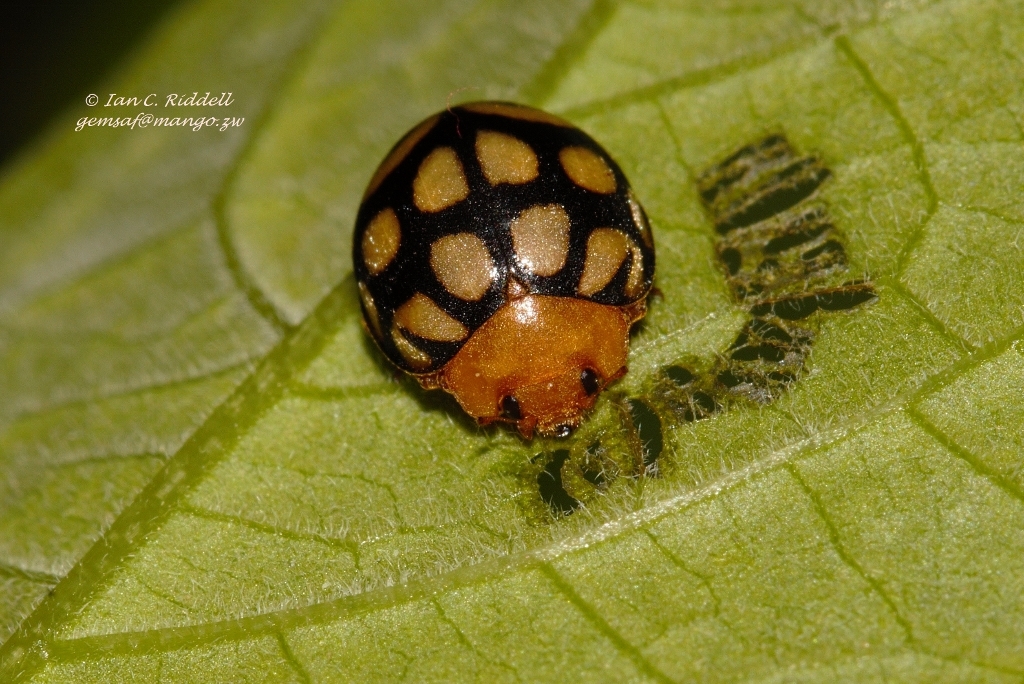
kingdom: Animalia
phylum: Arthropoda
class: Insecta
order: Coleoptera
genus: Solanophila
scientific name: Solanophila
